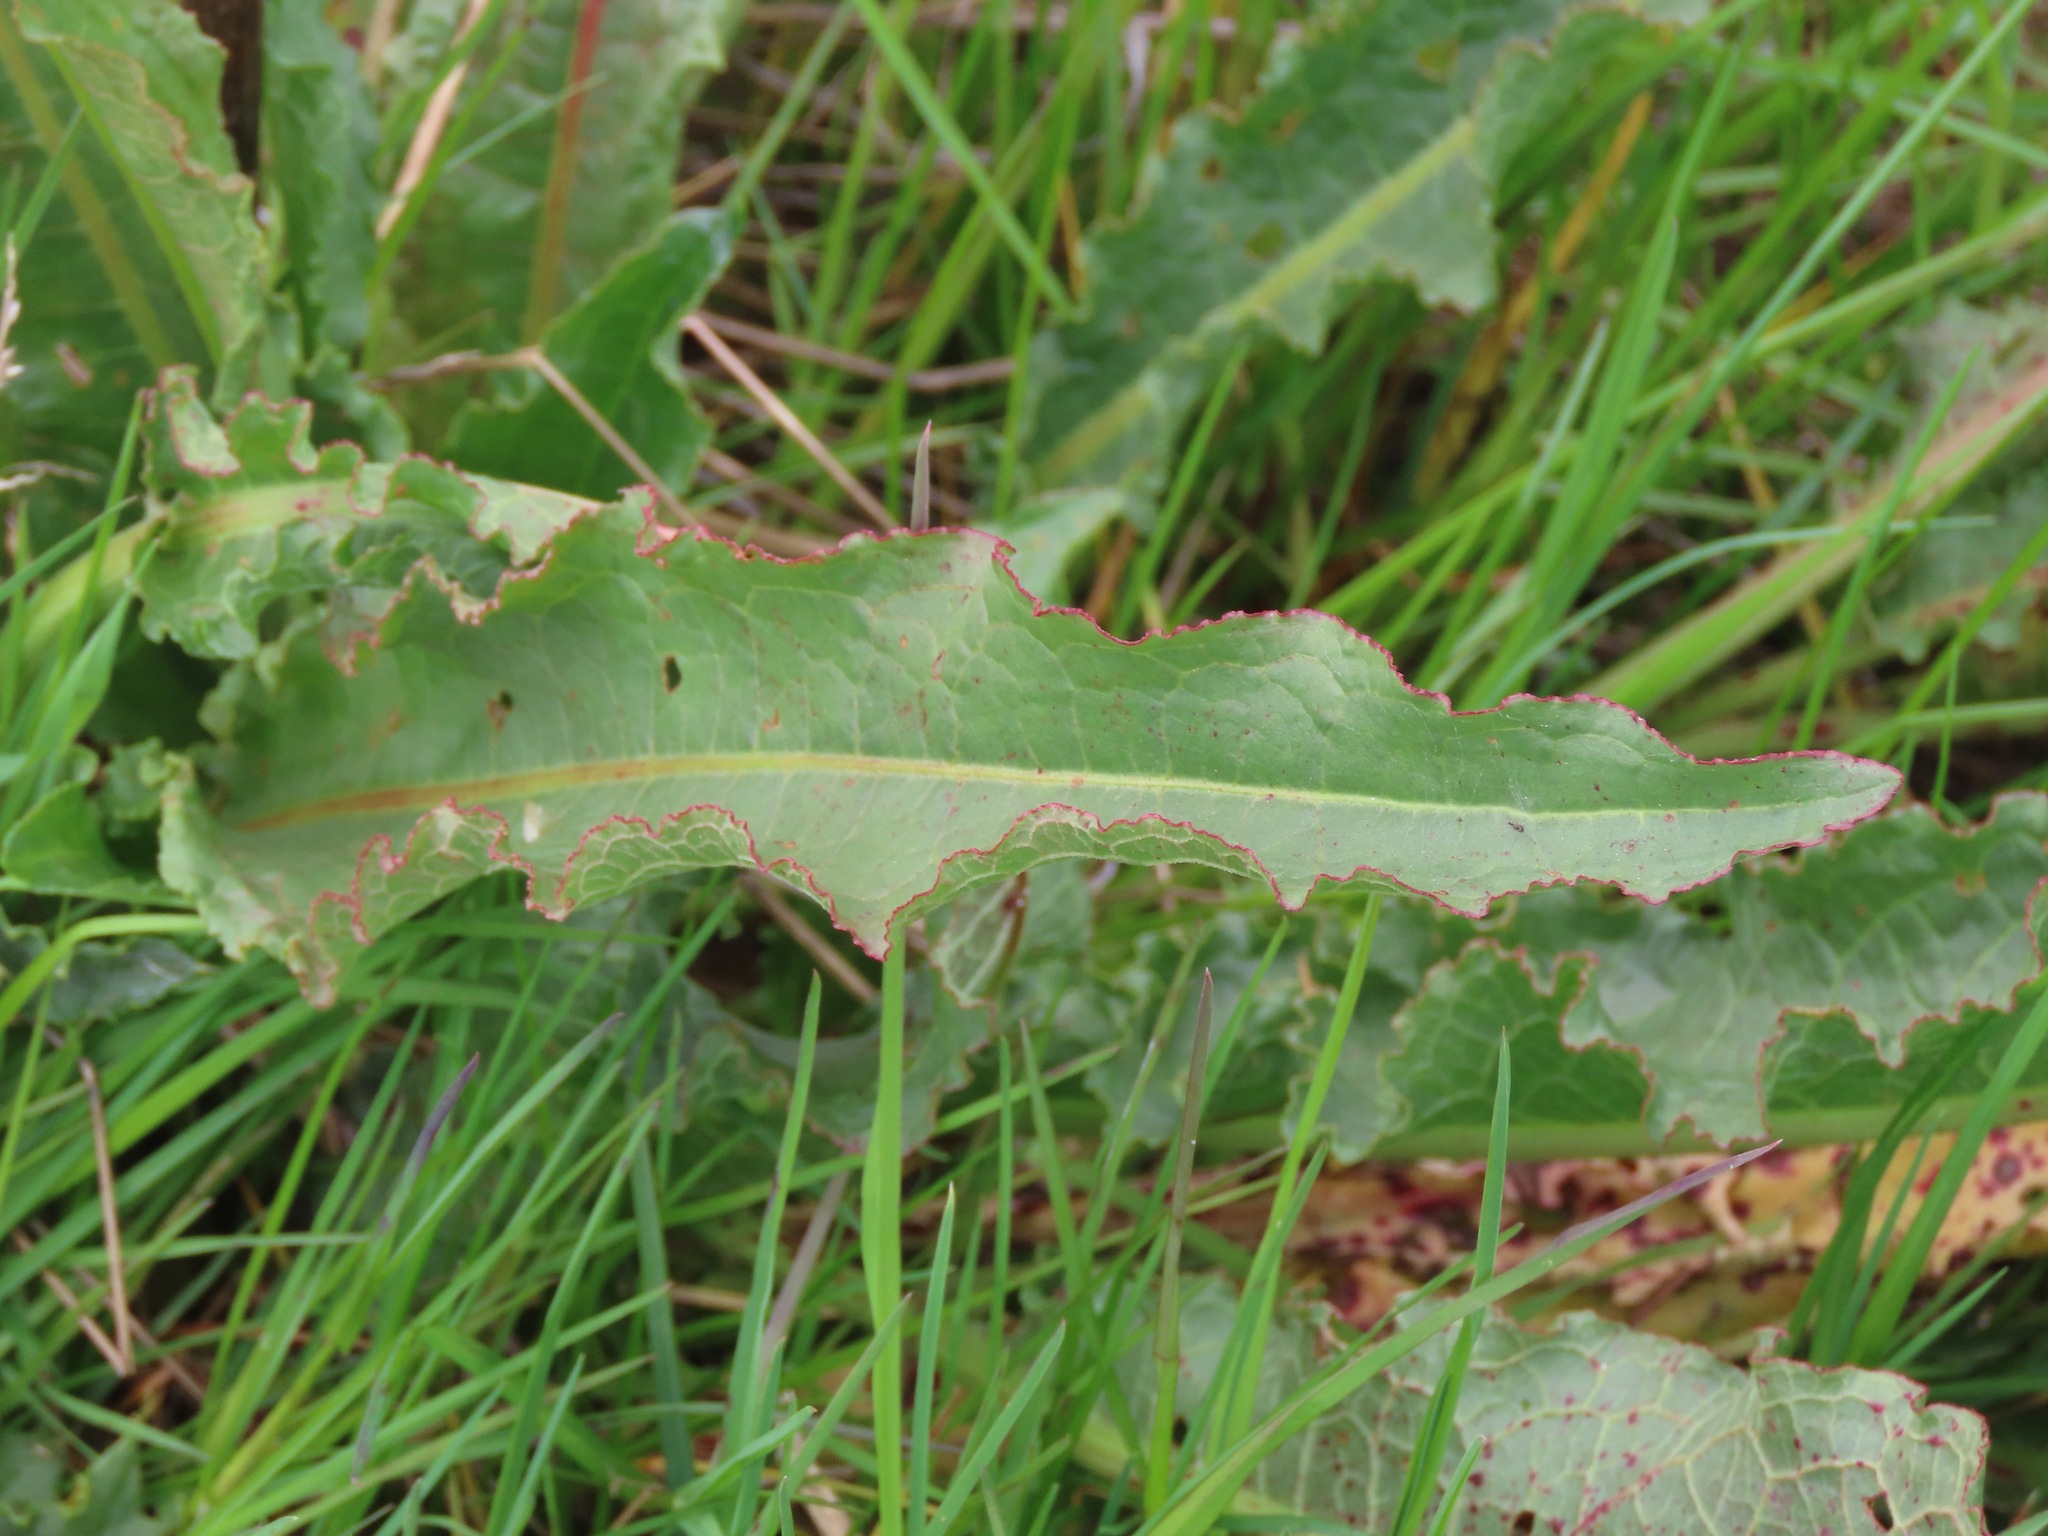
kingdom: Plantae
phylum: Tracheophyta
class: Magnoliopsida
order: Caryophyllales
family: Polygonaceae
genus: Rumex
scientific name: Rumex crispus
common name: Curled dock
